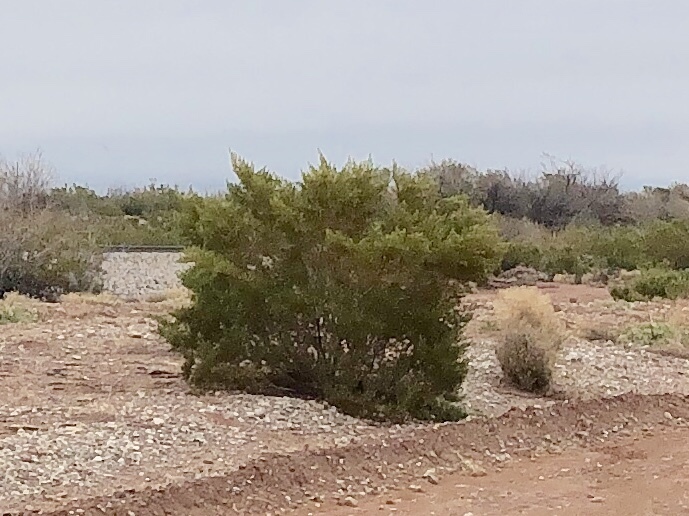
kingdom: Plantae
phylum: Tracheophyta
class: Magnoliopsida
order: Zygophyllales
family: Zygophyllaceae
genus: Larrea
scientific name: Larrea tridentata
